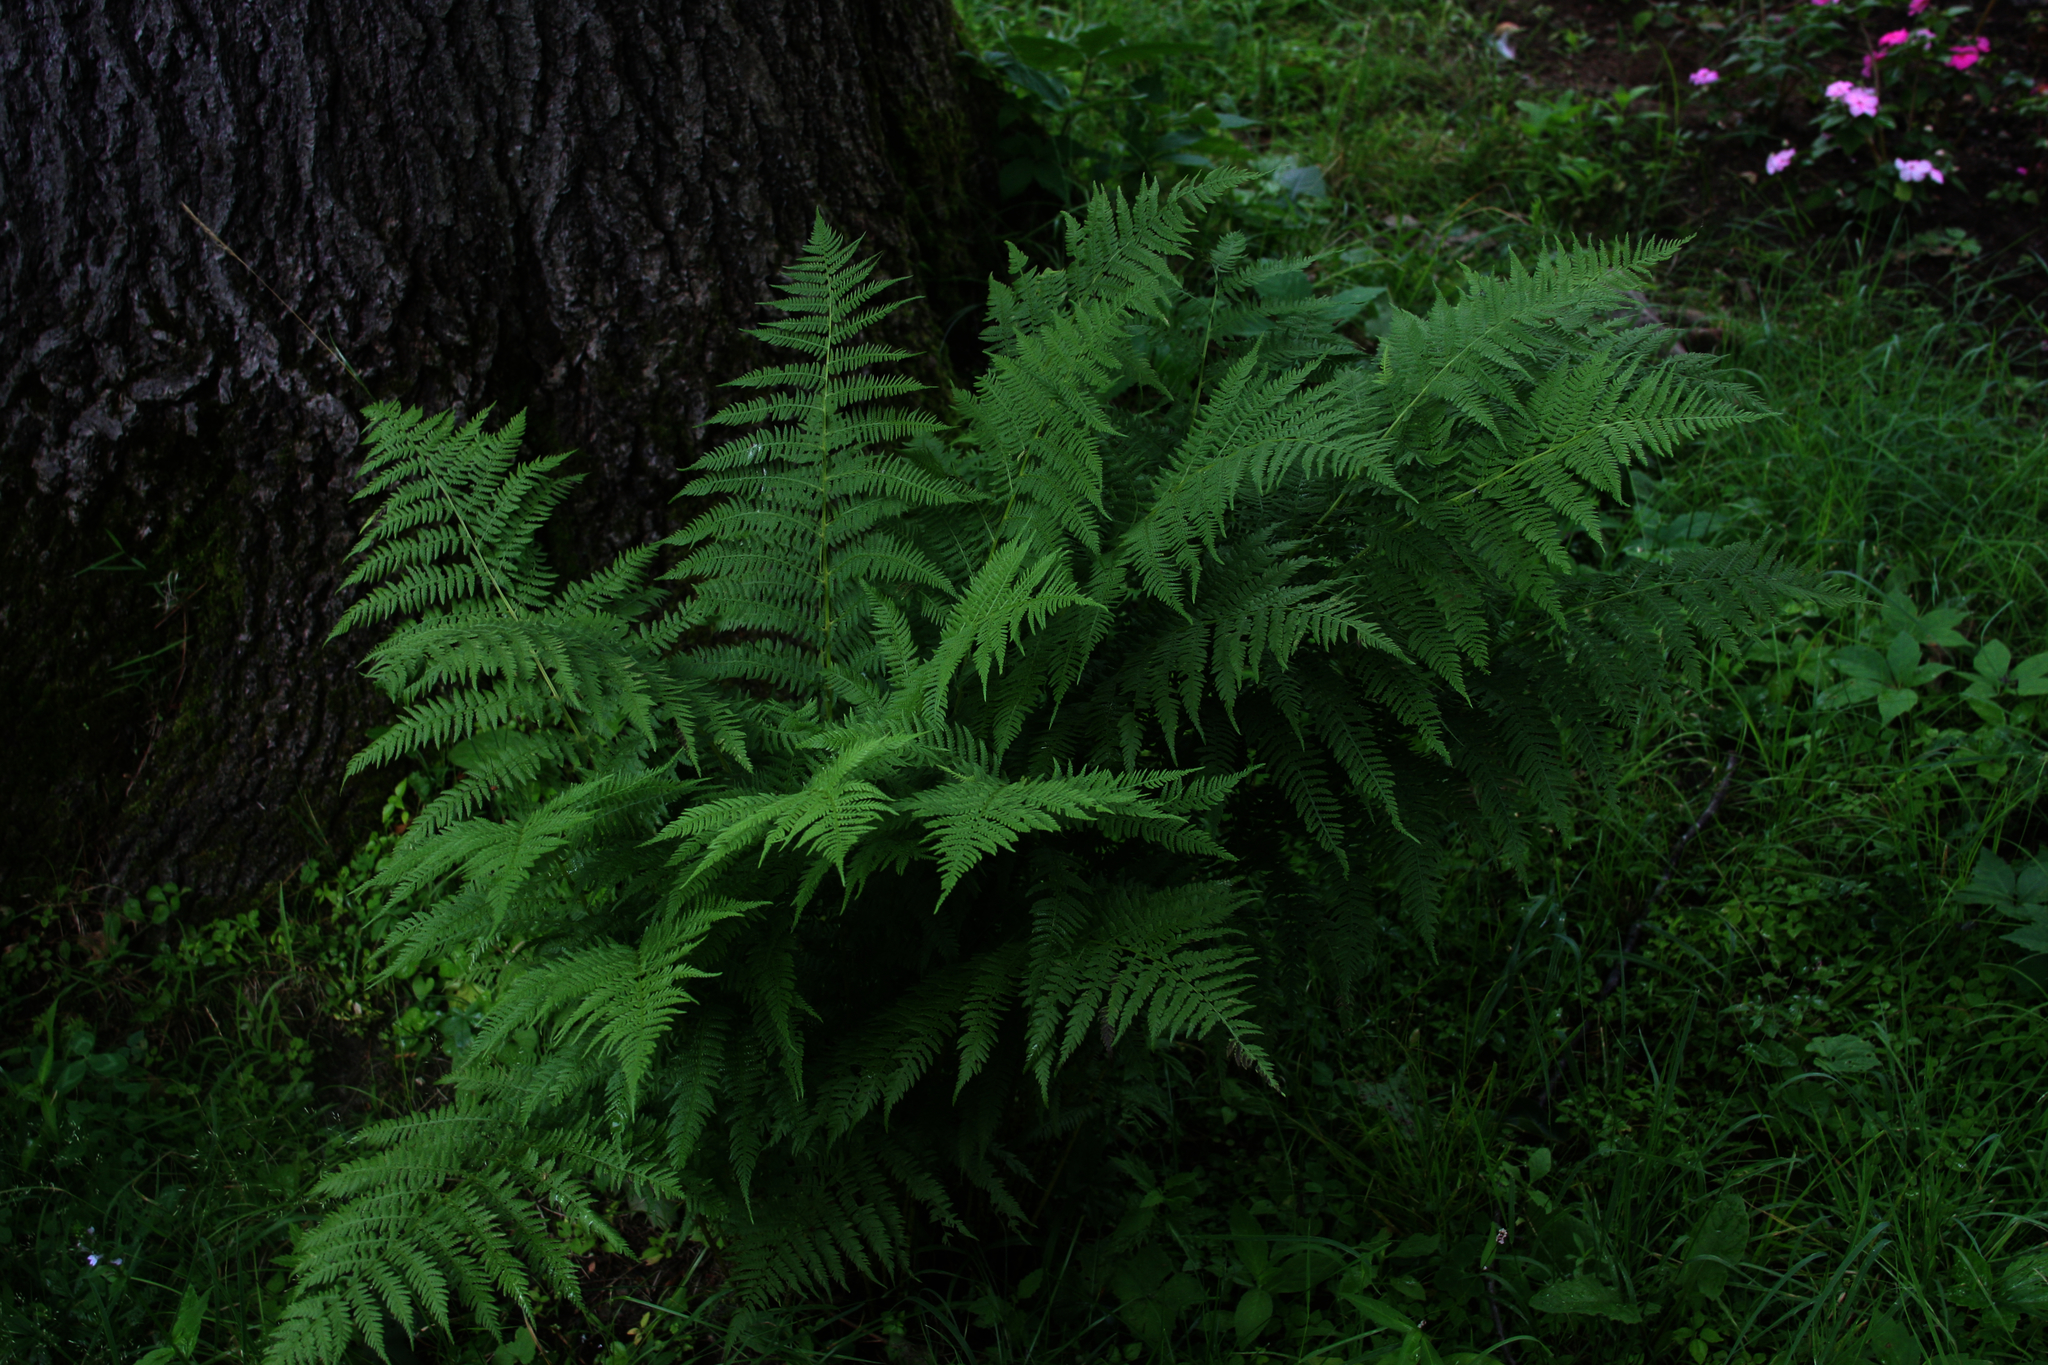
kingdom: Plantae
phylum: Tracheophyta
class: Polypodiopsida
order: Polypodiales
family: Athyriaceae
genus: Athyrium
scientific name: Athyrium angustum
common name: Northern lady fern
